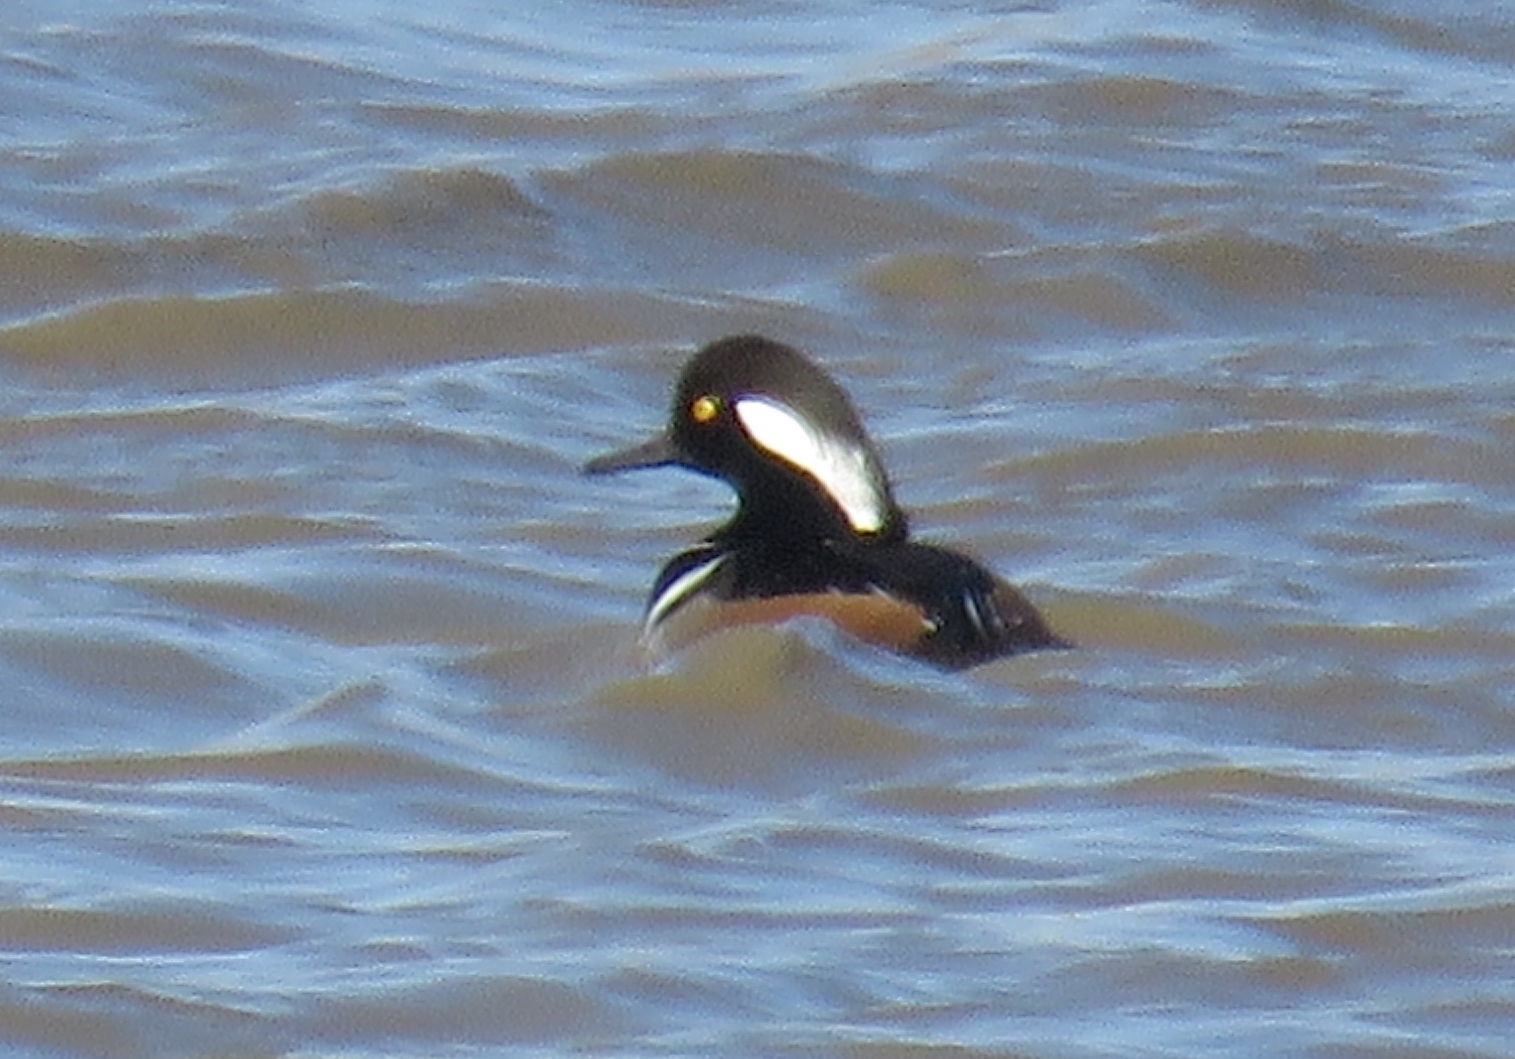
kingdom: Animalia
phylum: Chordata
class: Aves
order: Anseriformes
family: Anatidae
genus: Lophodytes
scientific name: Lophodytes cucullatus
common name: Hooded merganser
